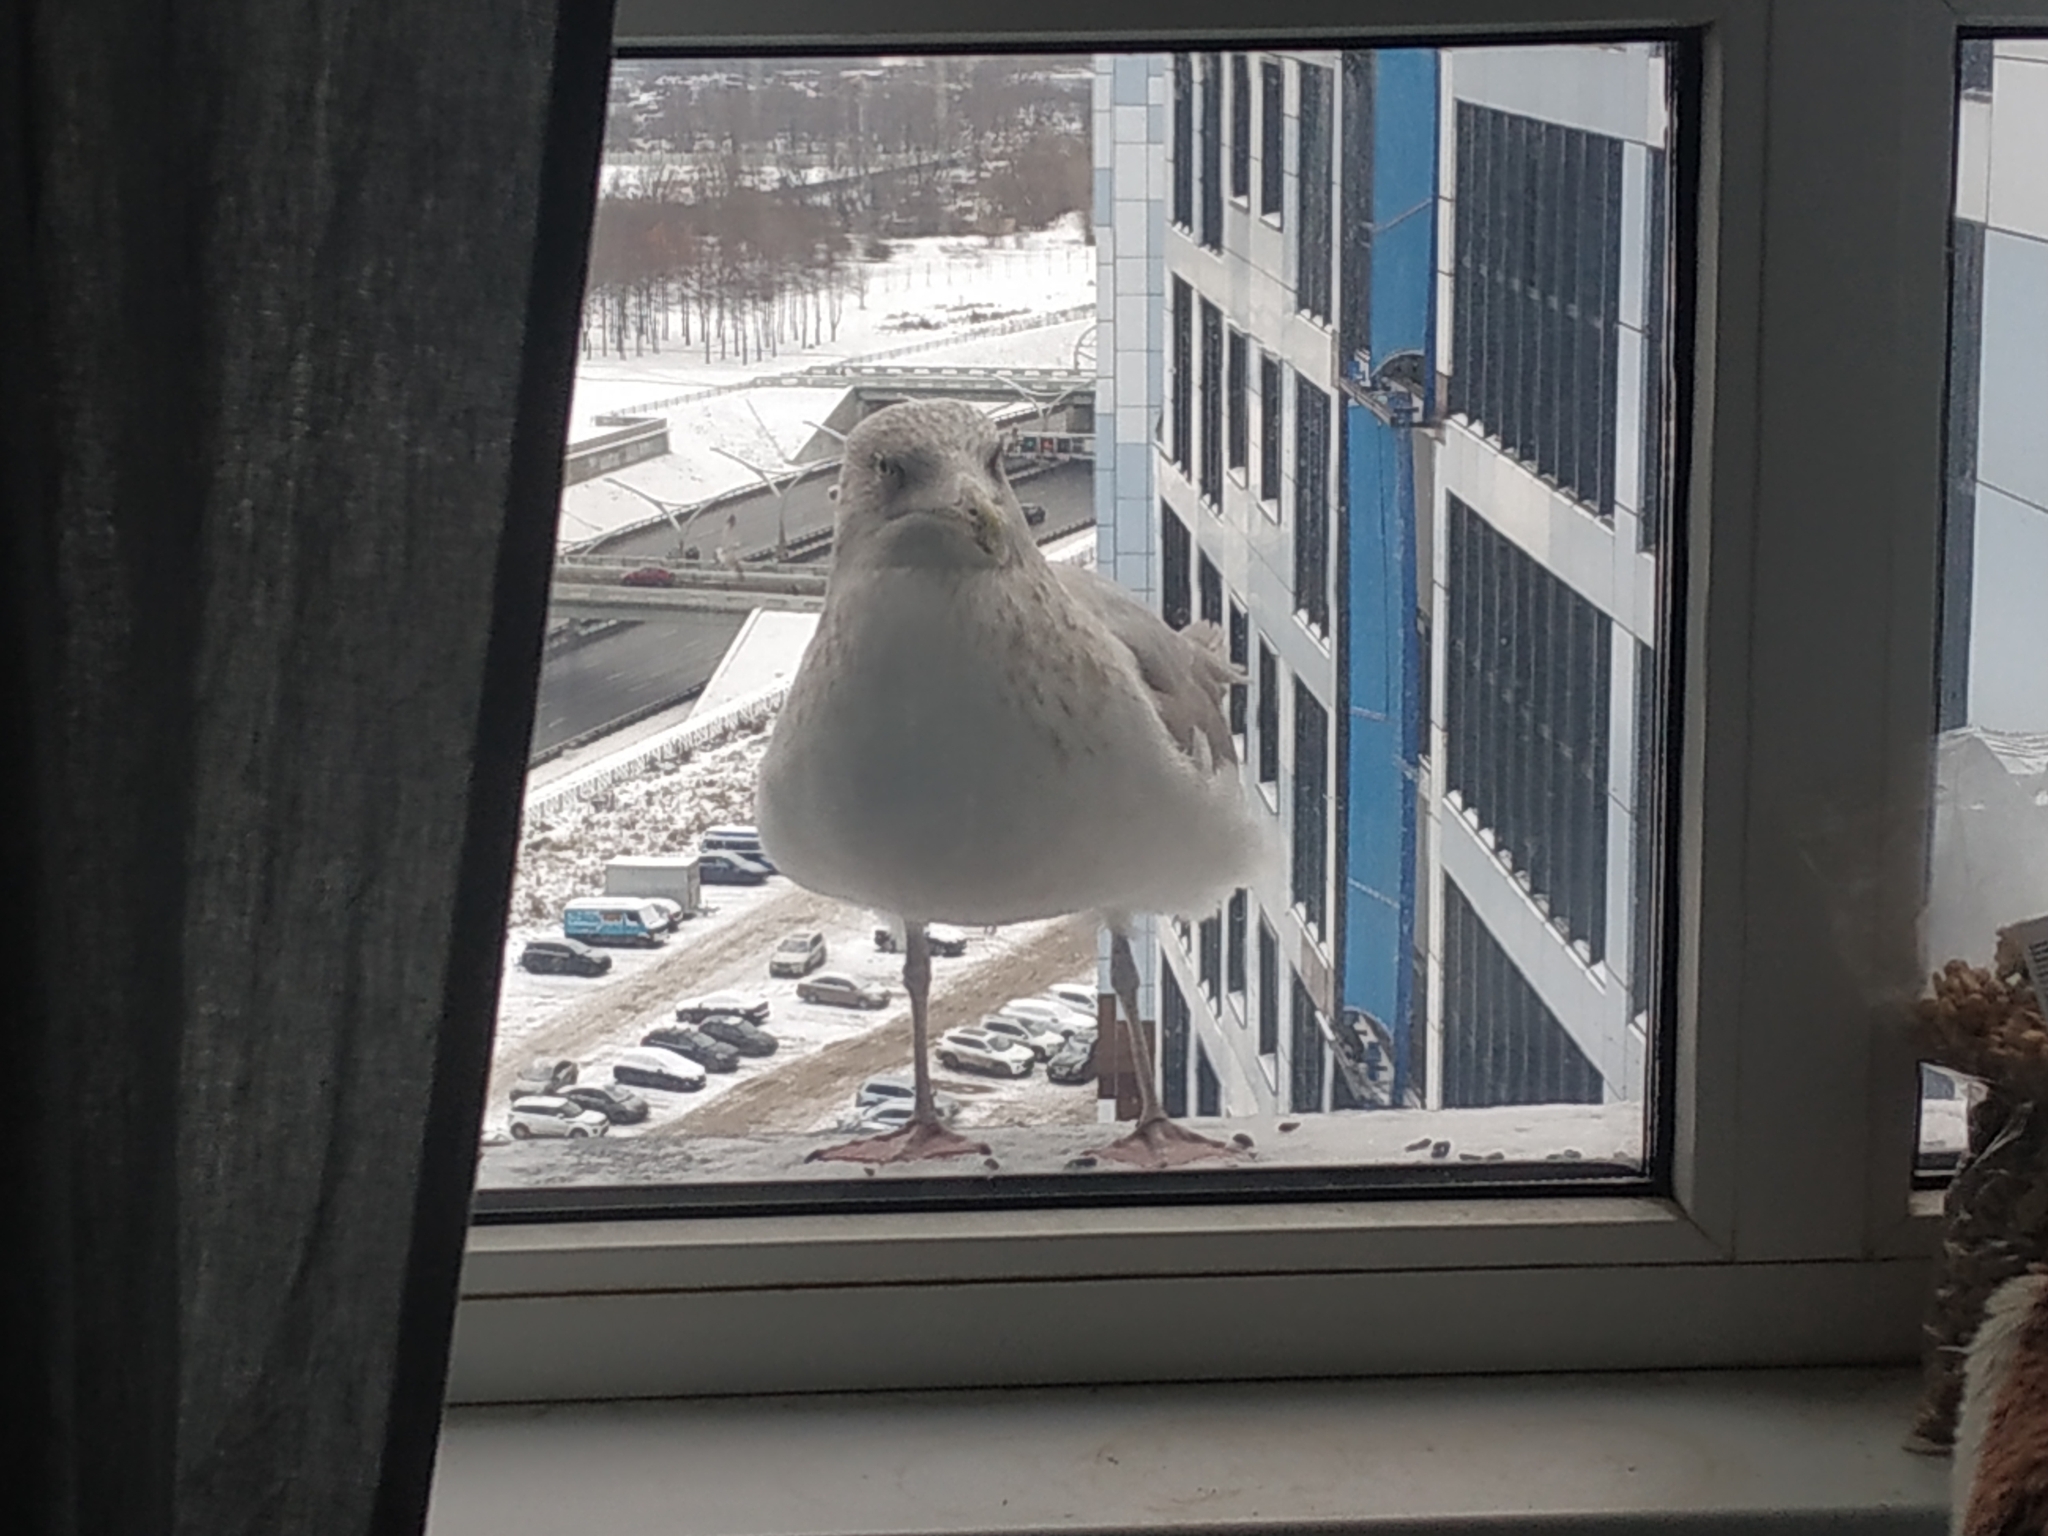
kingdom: Animalia
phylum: Chordata
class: Aves
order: Charadriiformes
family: Laridae
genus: Larus
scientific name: Larus argentatus
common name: Herring gull
